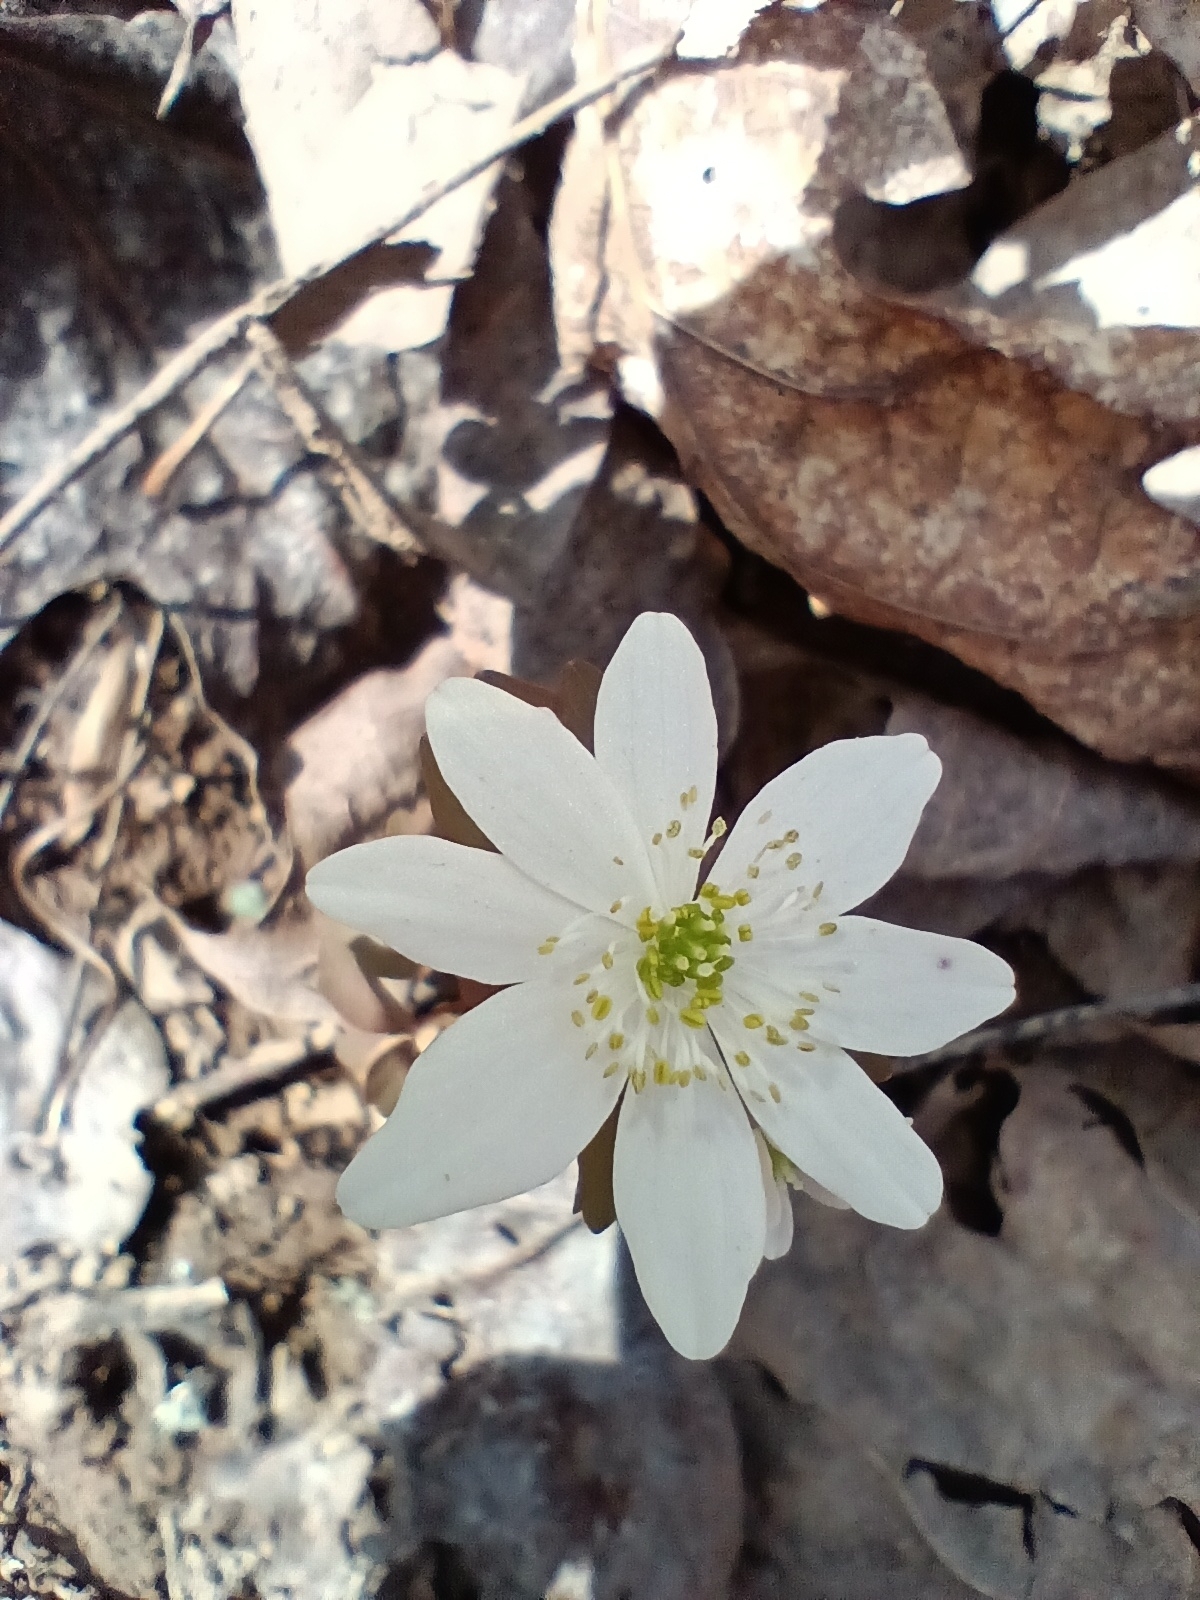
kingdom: Plantae
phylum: Tracheophyta
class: Magnoliopsida
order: Ranunculales
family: Ranunculaceae
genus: Thalictrum
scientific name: Thalictrum thalictroides
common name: Rue-anemone
